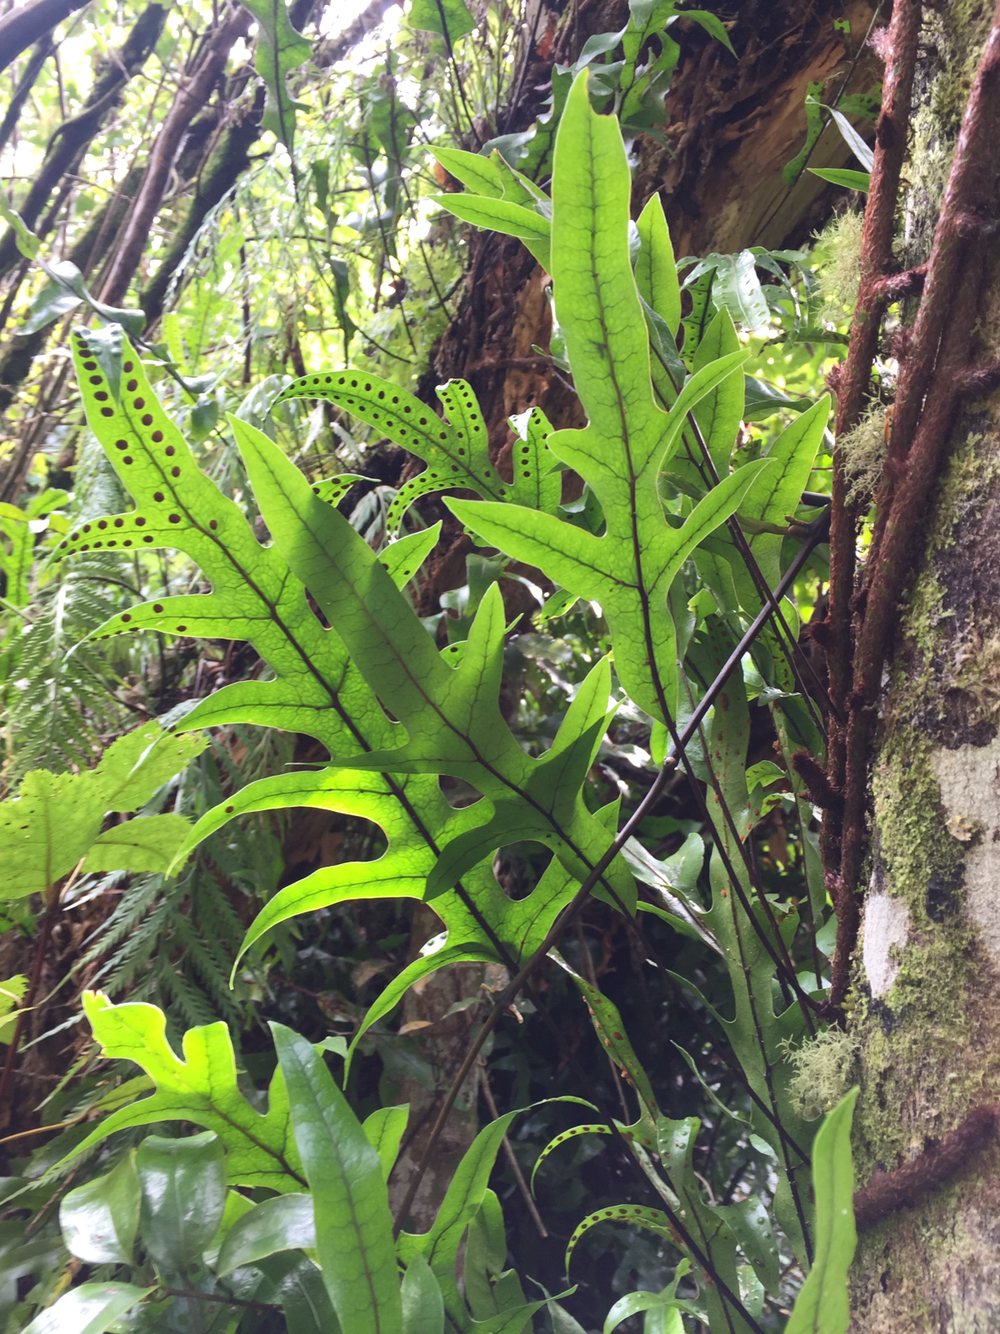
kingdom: Plantae
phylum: Tracheophyta
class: Polypodiopsida
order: Polypodiales
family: Polypodiaceae
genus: Lecanopteris
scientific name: Lecanopteris pustulata
